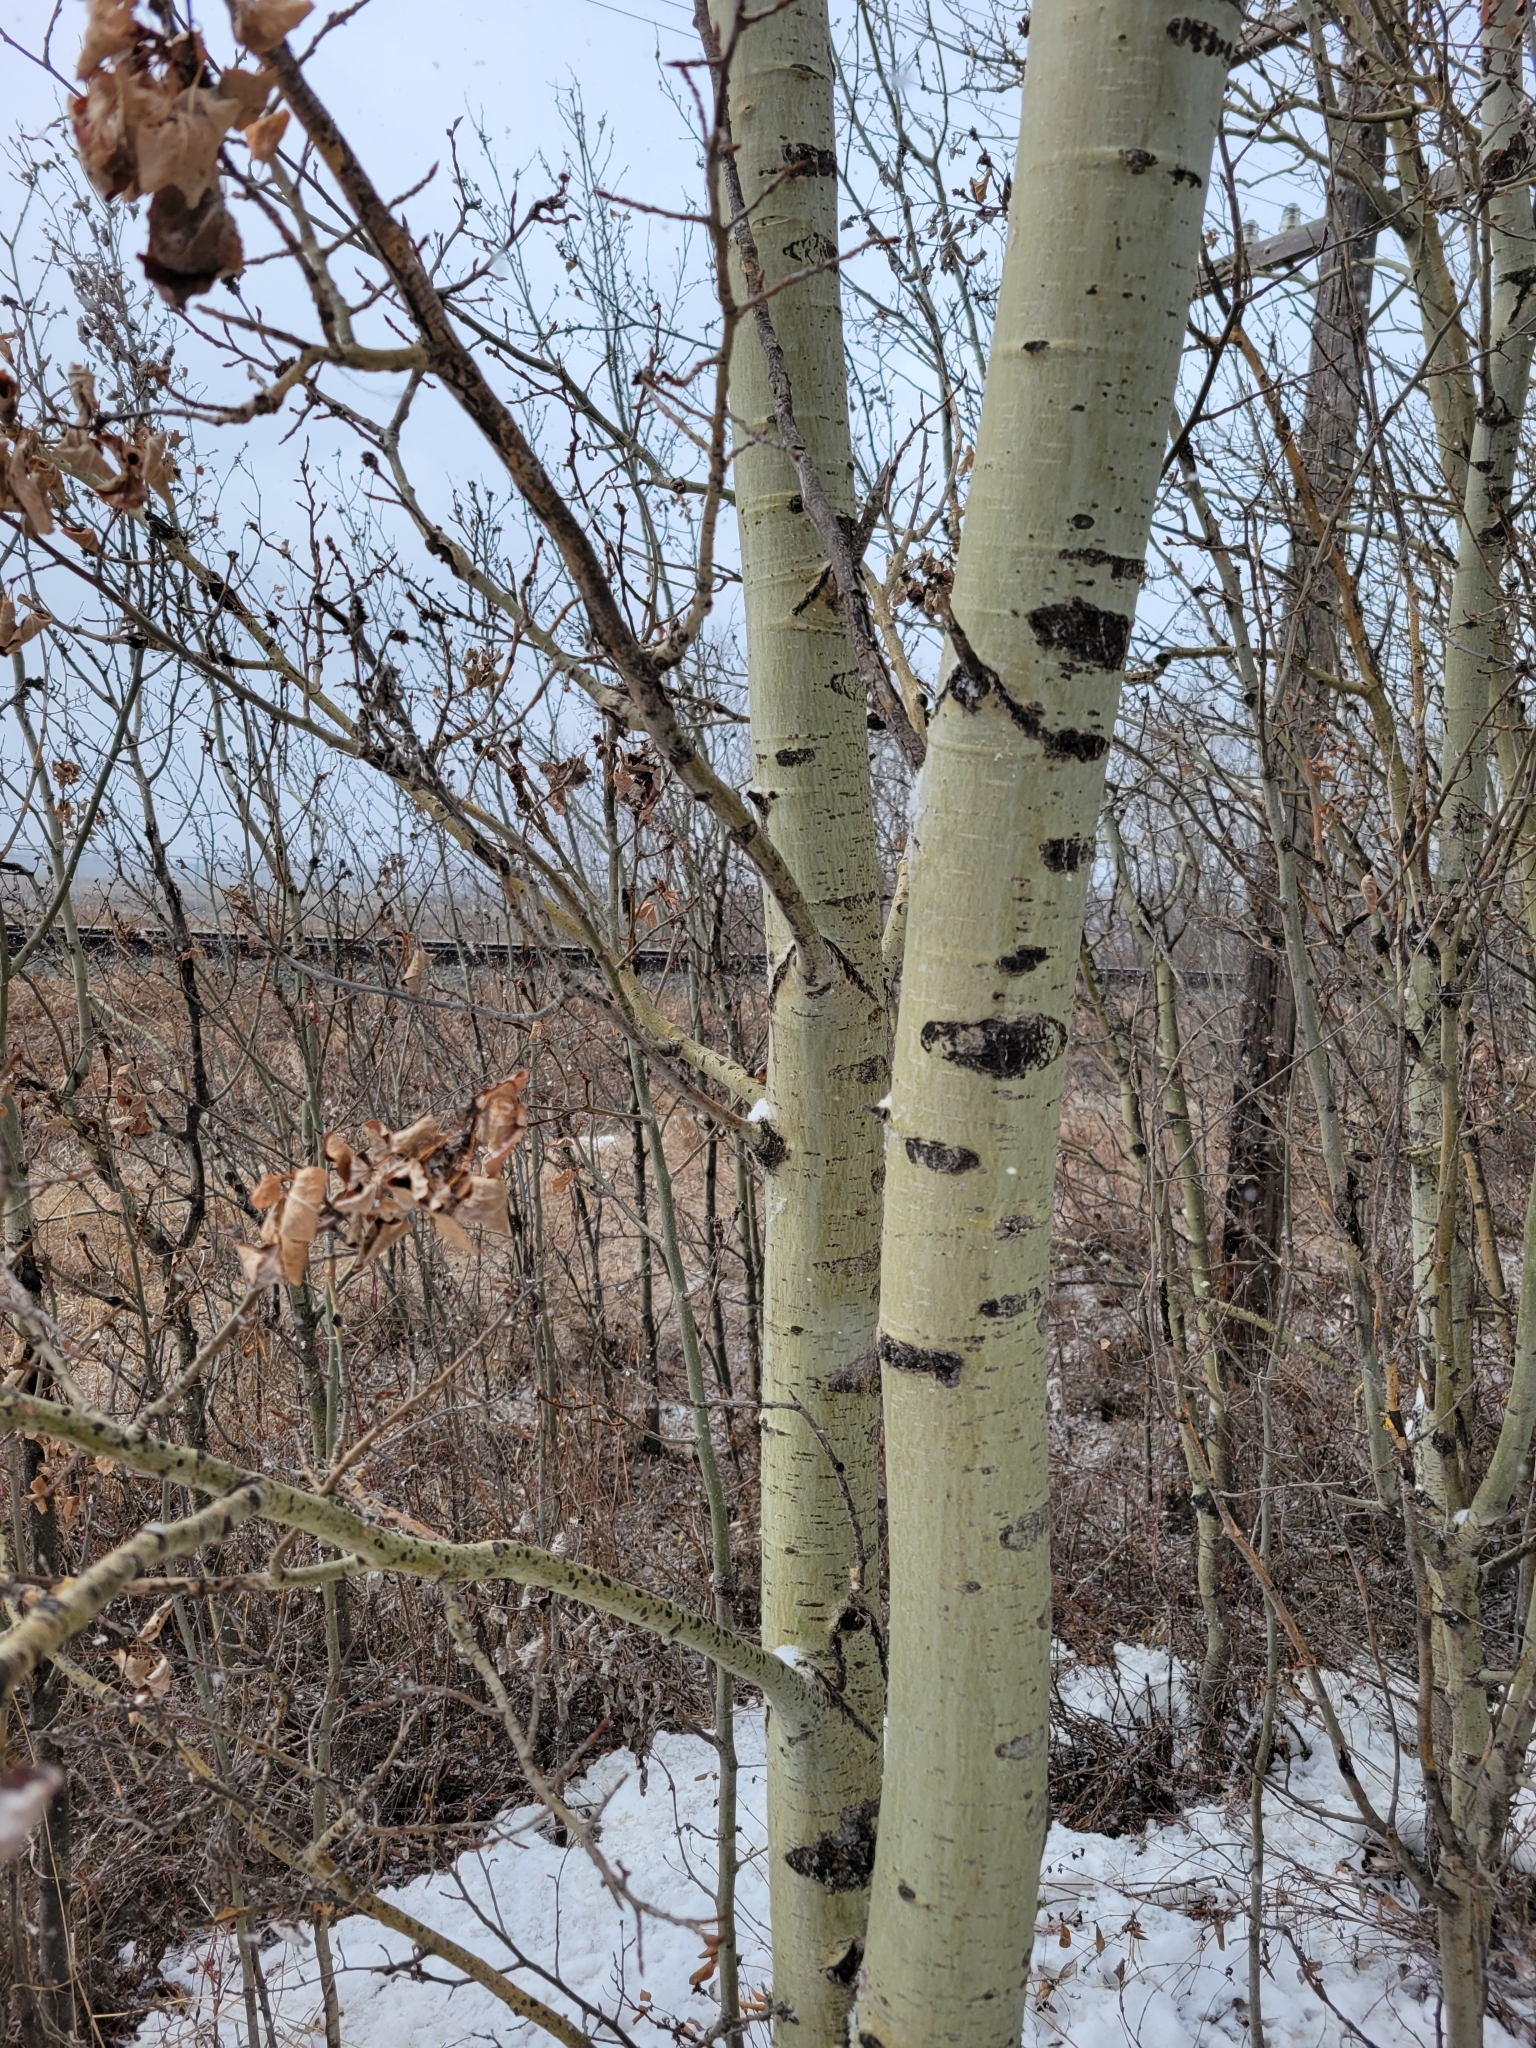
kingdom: Plantae
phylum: Tracheophyta
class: Magnoliopsida
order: Malpighiales
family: Salicaceae
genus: Populus
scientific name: Populus tremuloides
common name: Quaking aspen
